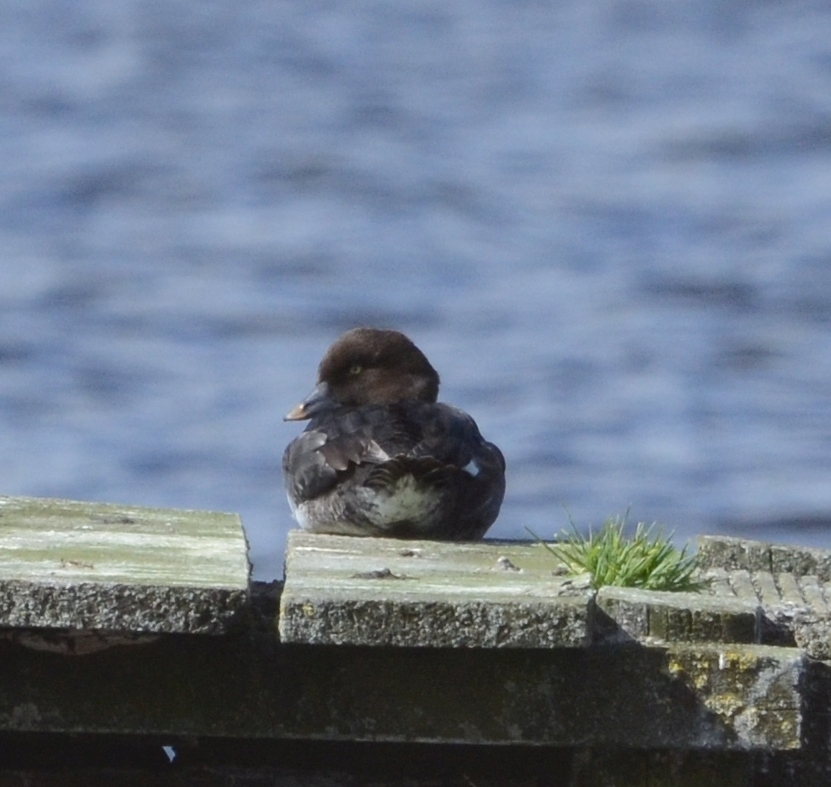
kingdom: Animalia
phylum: Chordata
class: Aves
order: Anseriformes
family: Anatidae
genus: Bucephala
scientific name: Bucephala clangula
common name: Common goldeneye
